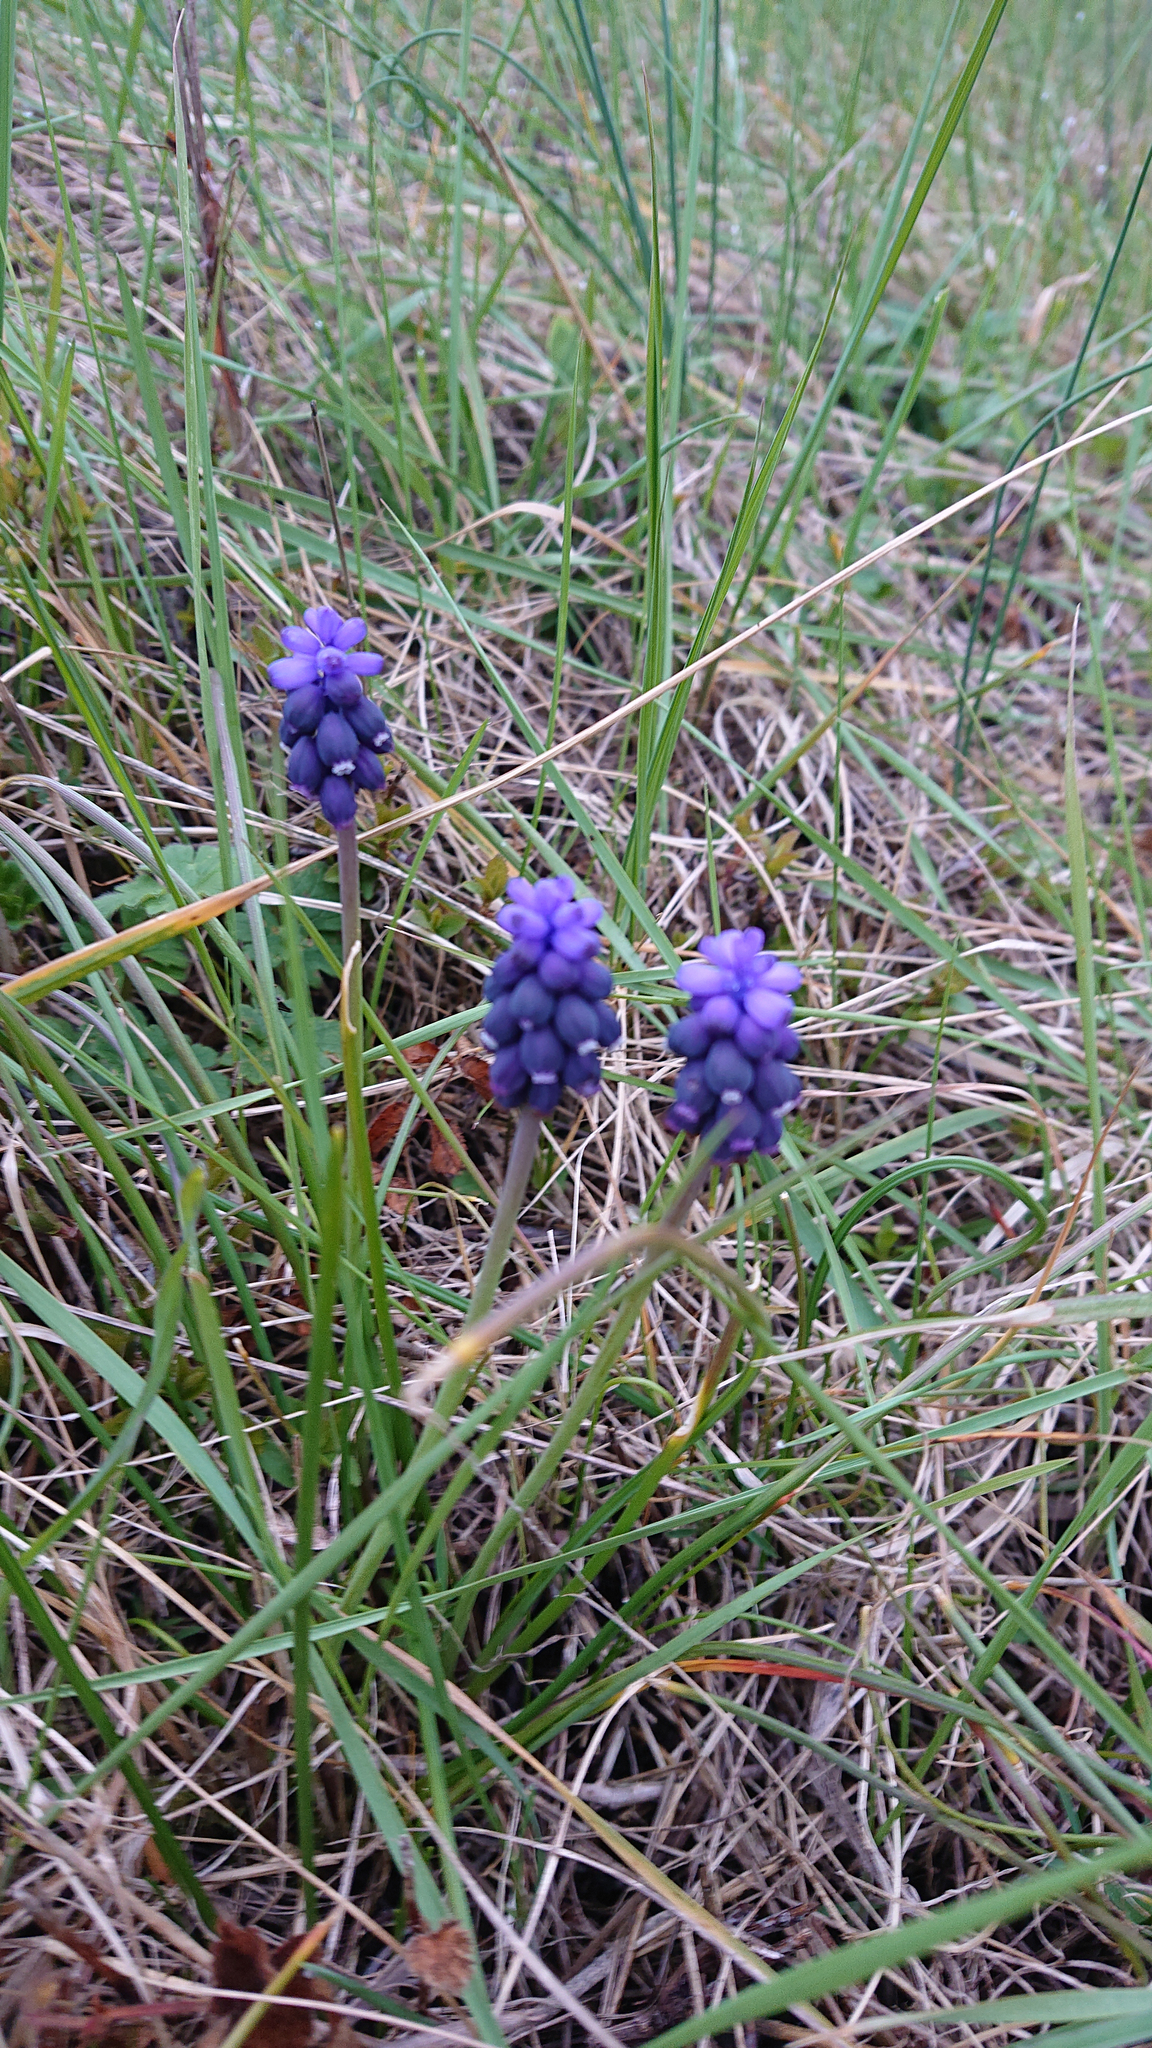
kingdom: Plantae
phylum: Tracheophyta
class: Liliopsida
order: Asparagales
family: Asparagaceae
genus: Muscari
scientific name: Muscari neglectum
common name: Grape-hyacinth
